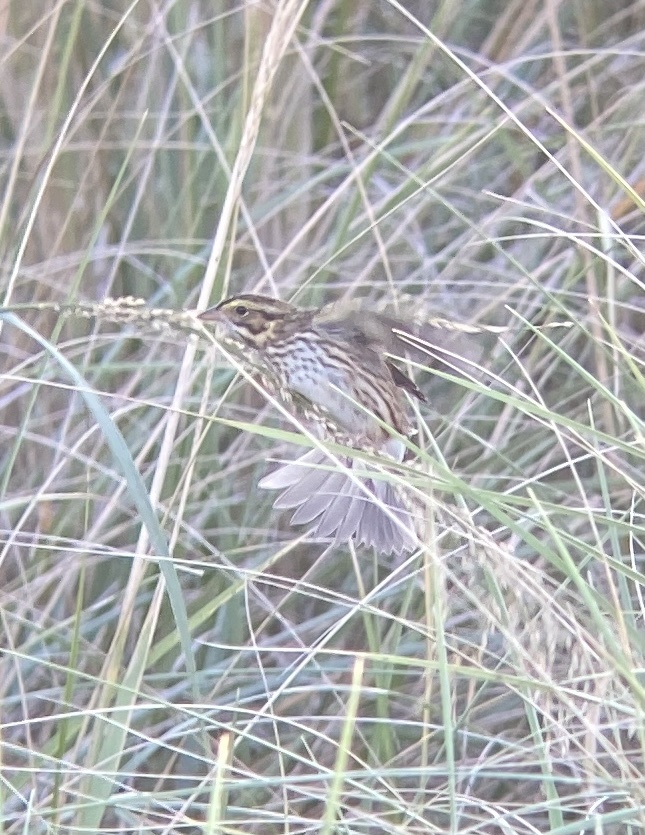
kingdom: Animalia
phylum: Chordata
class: Aves
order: Passeriformes
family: Passerellidae
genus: Passerculus
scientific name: Passerculus sandwichensis
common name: Savannah sparrow
